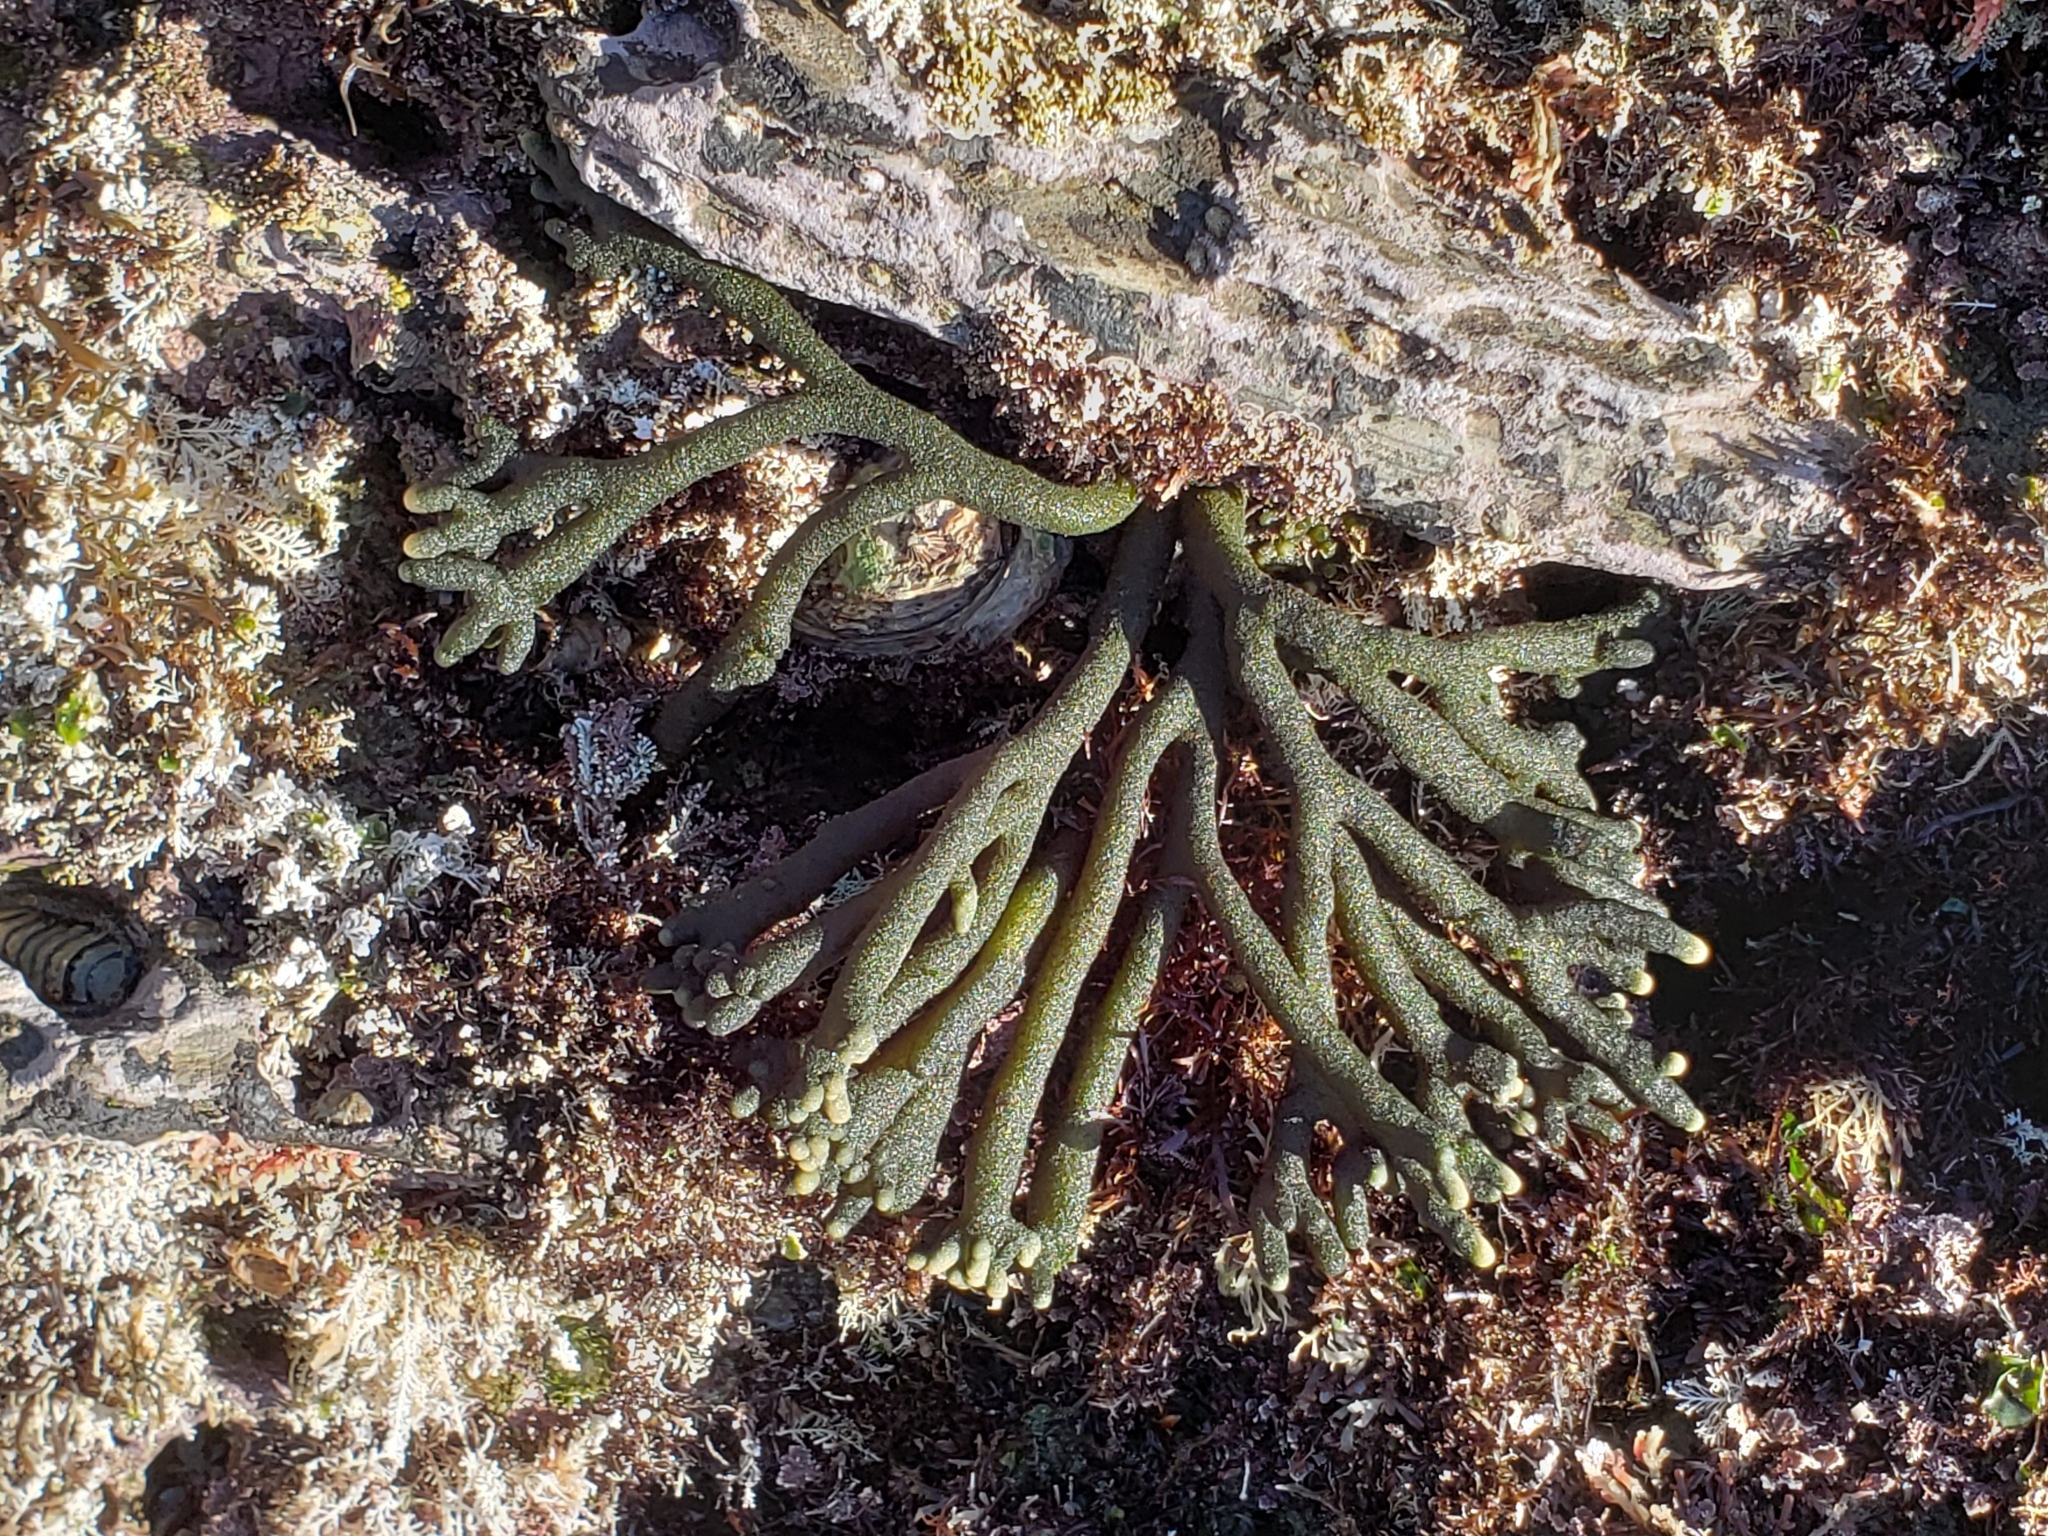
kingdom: Plantae
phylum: Chlorophyta
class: Ulvophyceae
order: Bryopsidales
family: Codiaceae
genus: Codium
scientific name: Codium fragile
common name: Dead man's fingers
